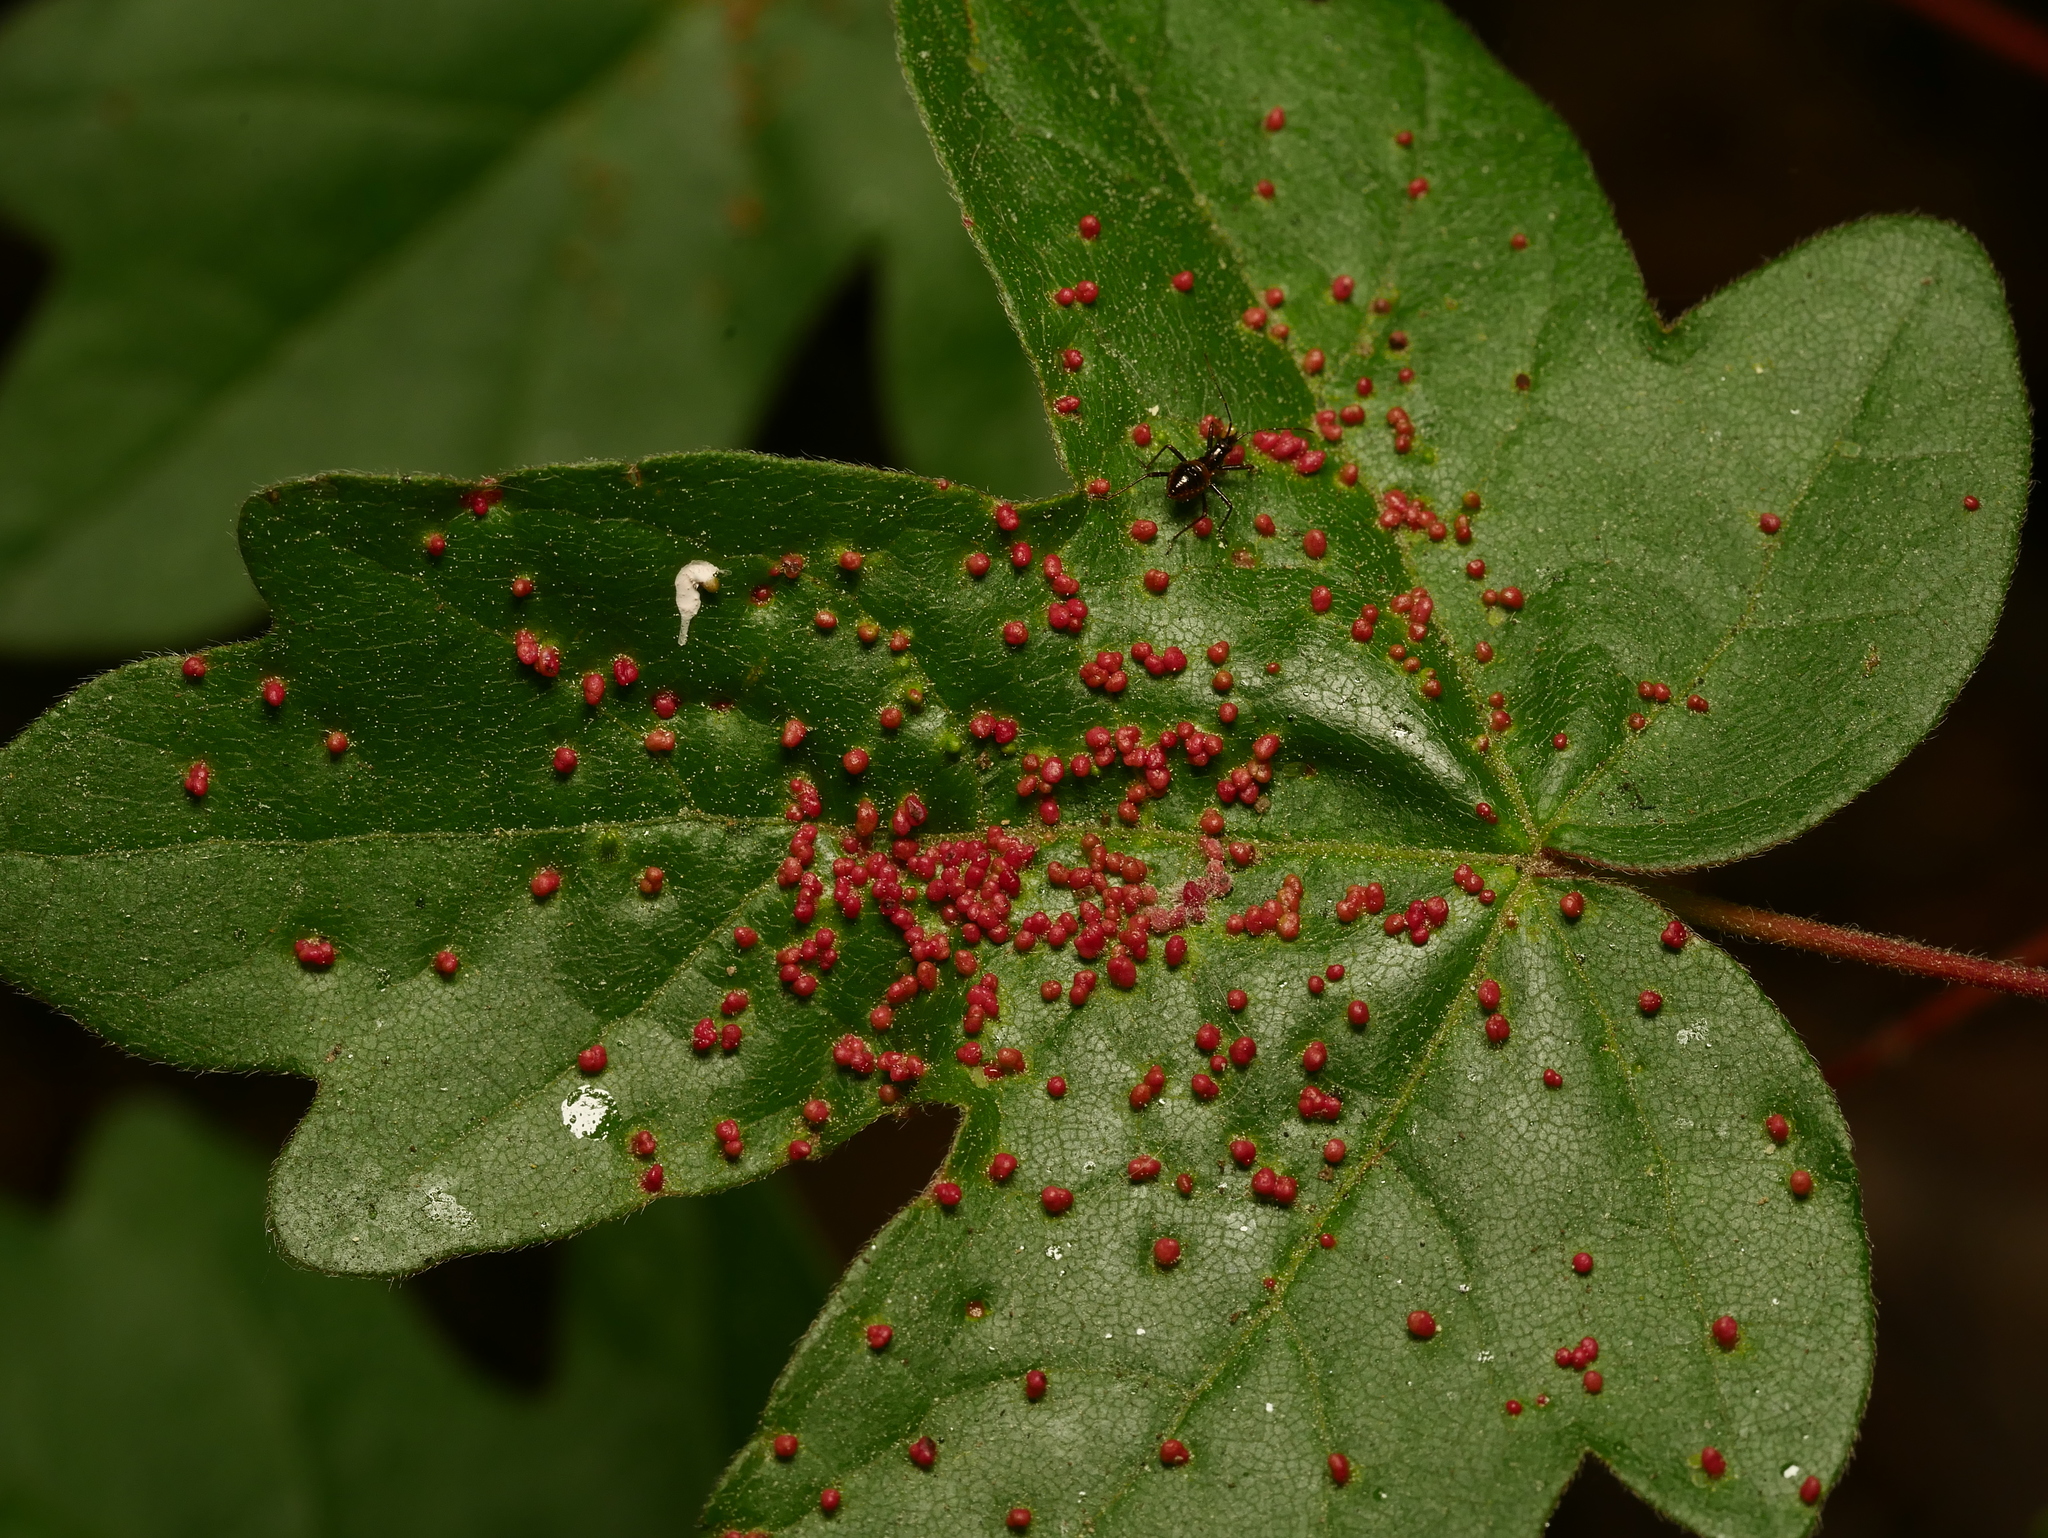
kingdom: Animalia
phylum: Arthropoda
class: Arachnida
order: Trombidiformes
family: Eriophyidae
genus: Aceria
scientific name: Aceria myriadeum
